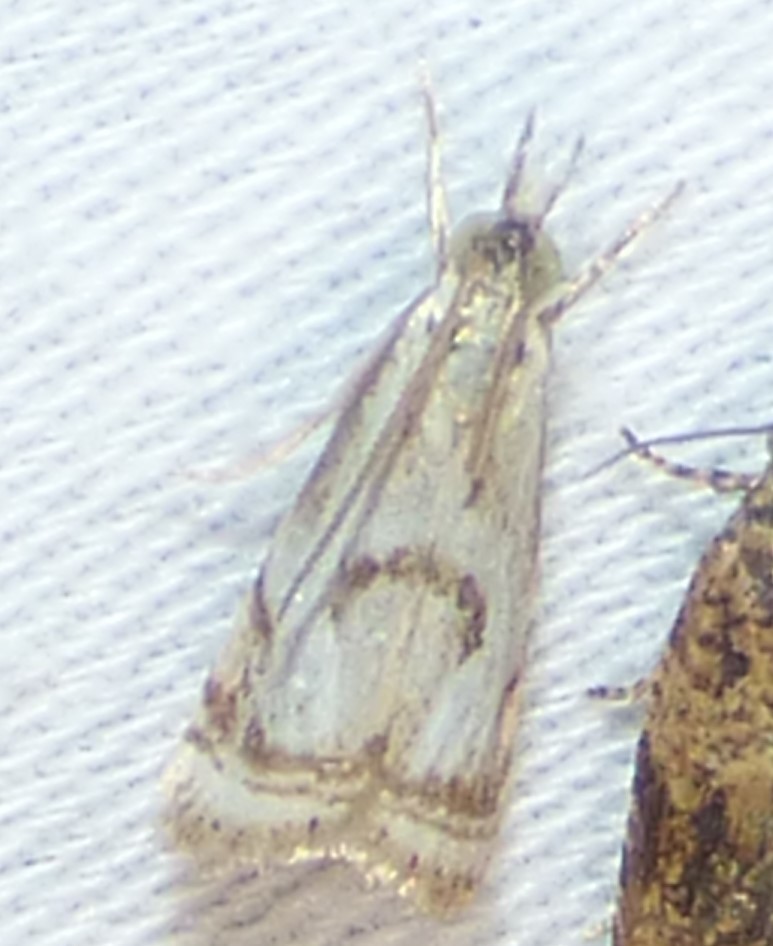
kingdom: Animalia
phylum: Arthropoda
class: Insecta
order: Lepidoptera
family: Crambidae
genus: Microcrambus
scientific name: Microcrambus elegans
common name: Elegant grass-veneer
